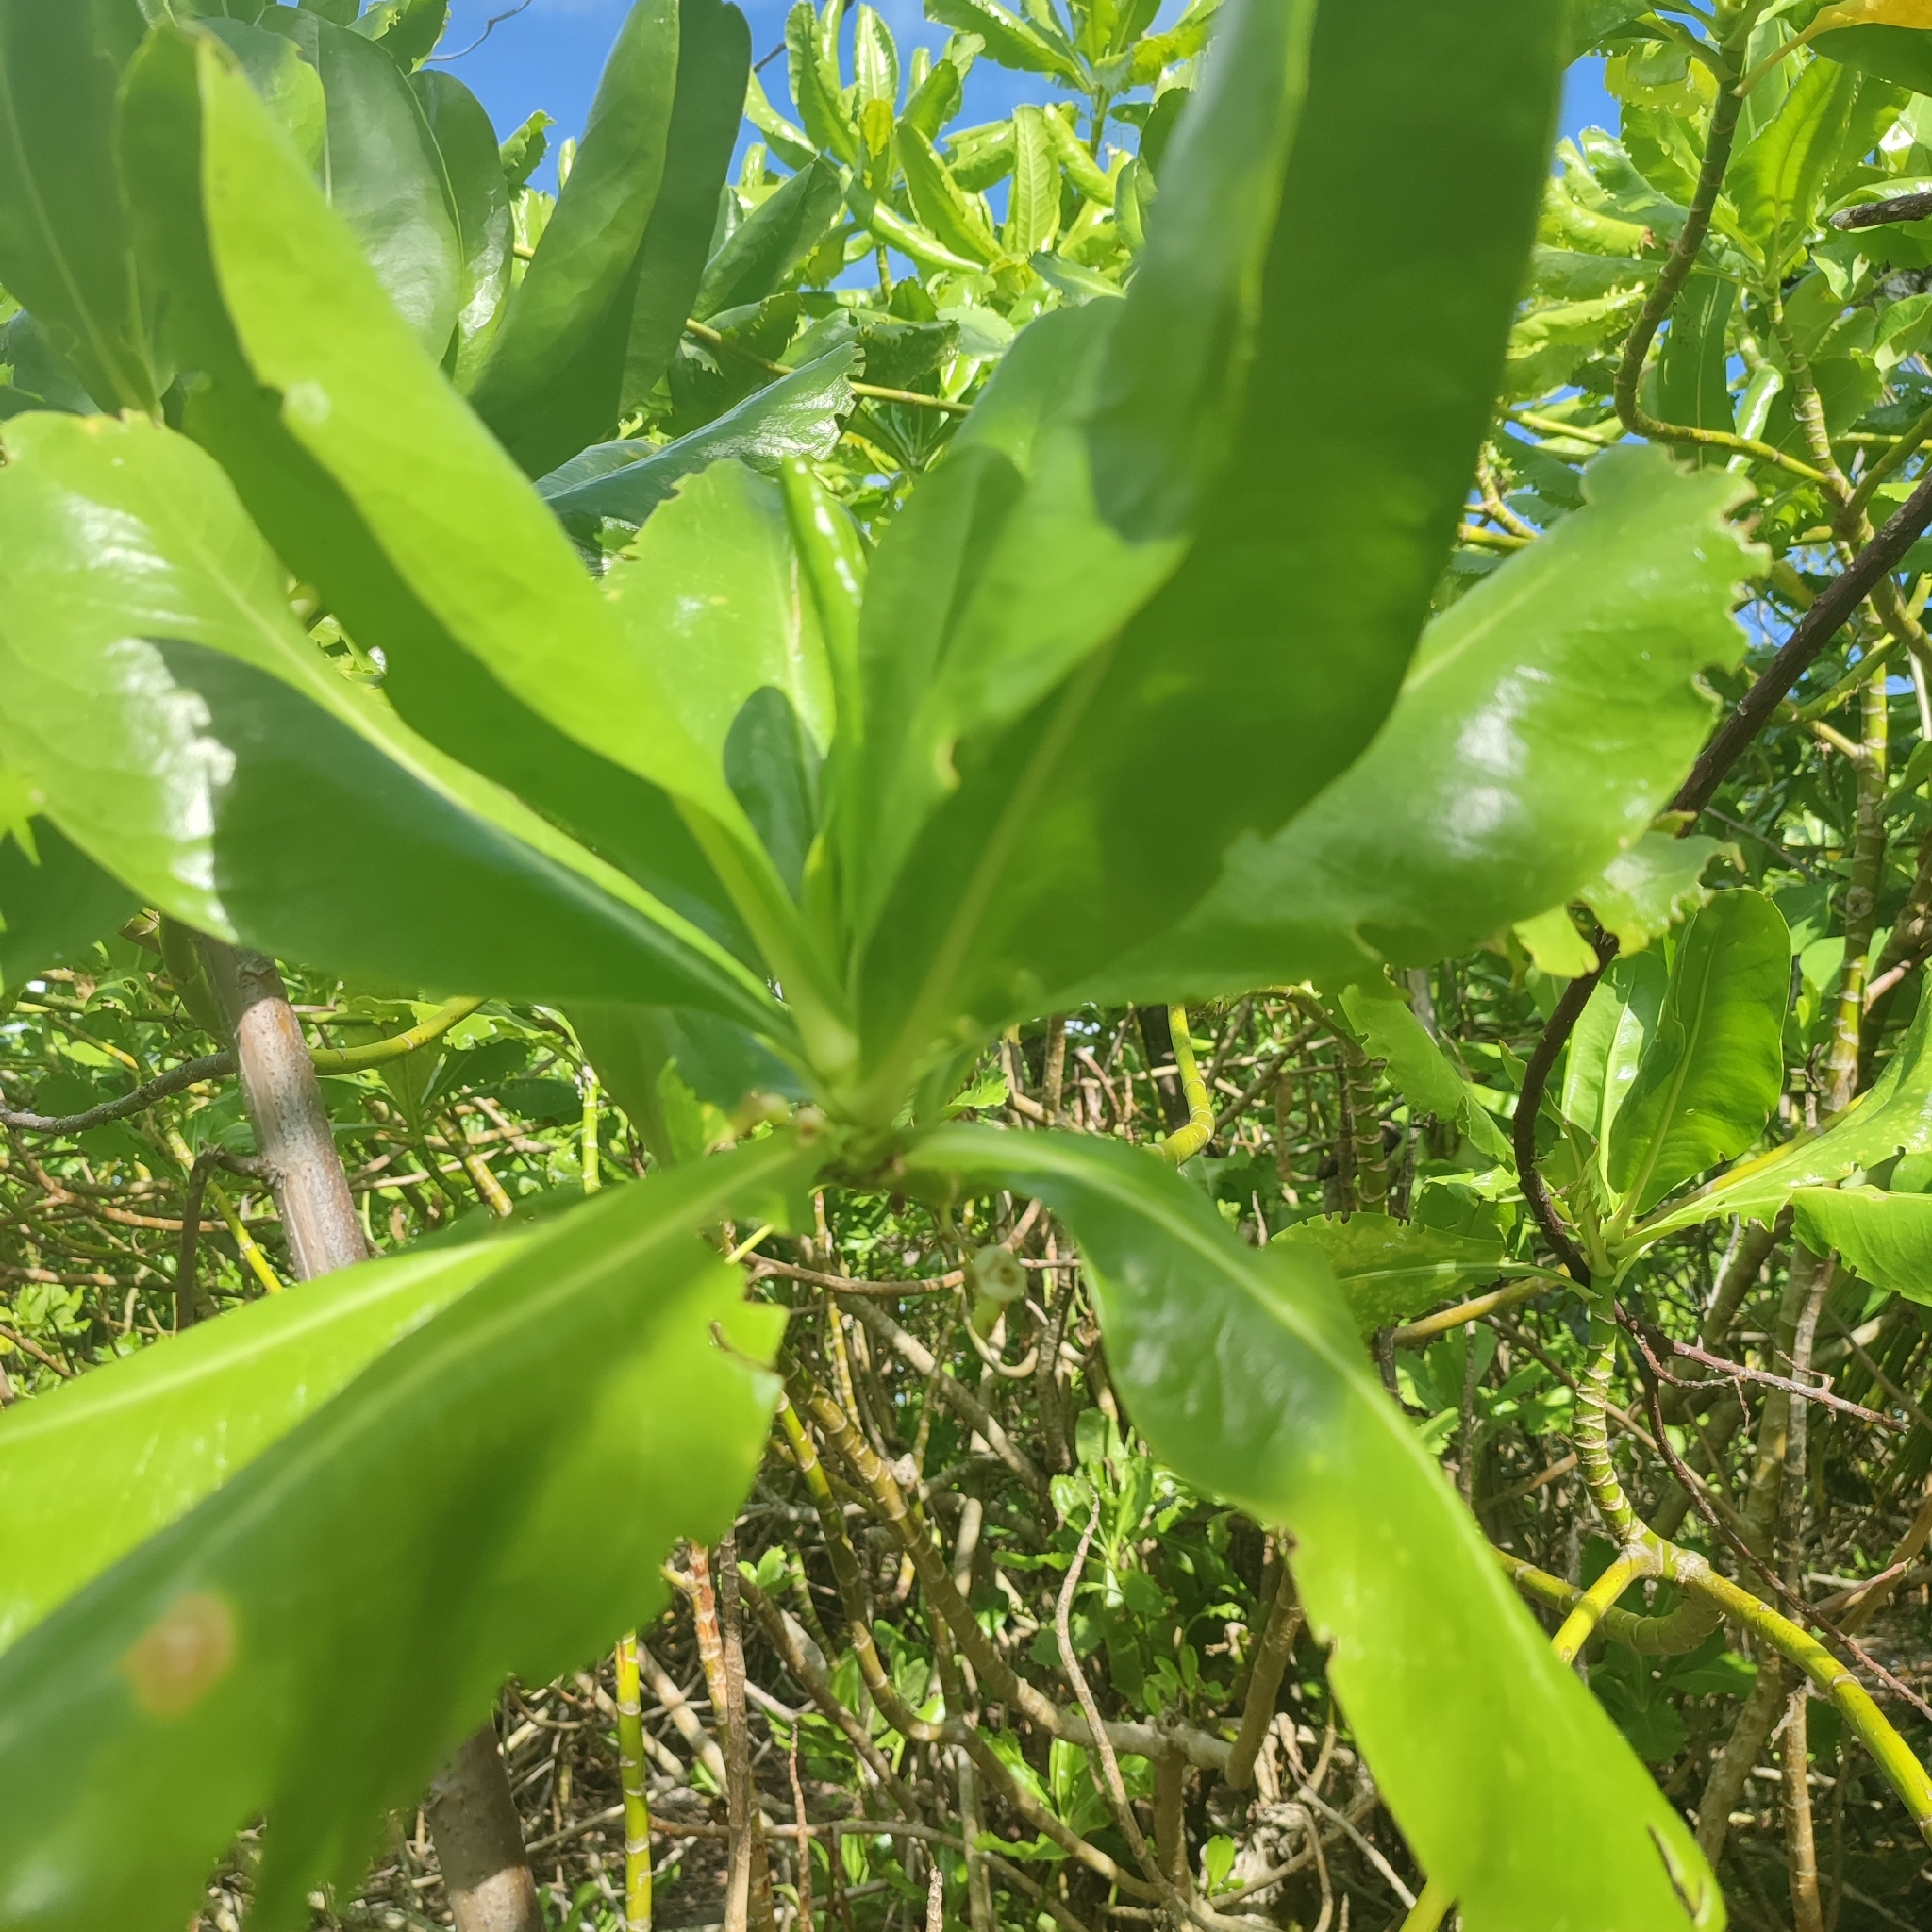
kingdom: Plantae
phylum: Tracheophyta
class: Magnoliopsida
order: Asterales
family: Goodeniaceae
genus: Scaevola
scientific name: Scaevola taccada
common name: Sea lettucetree
